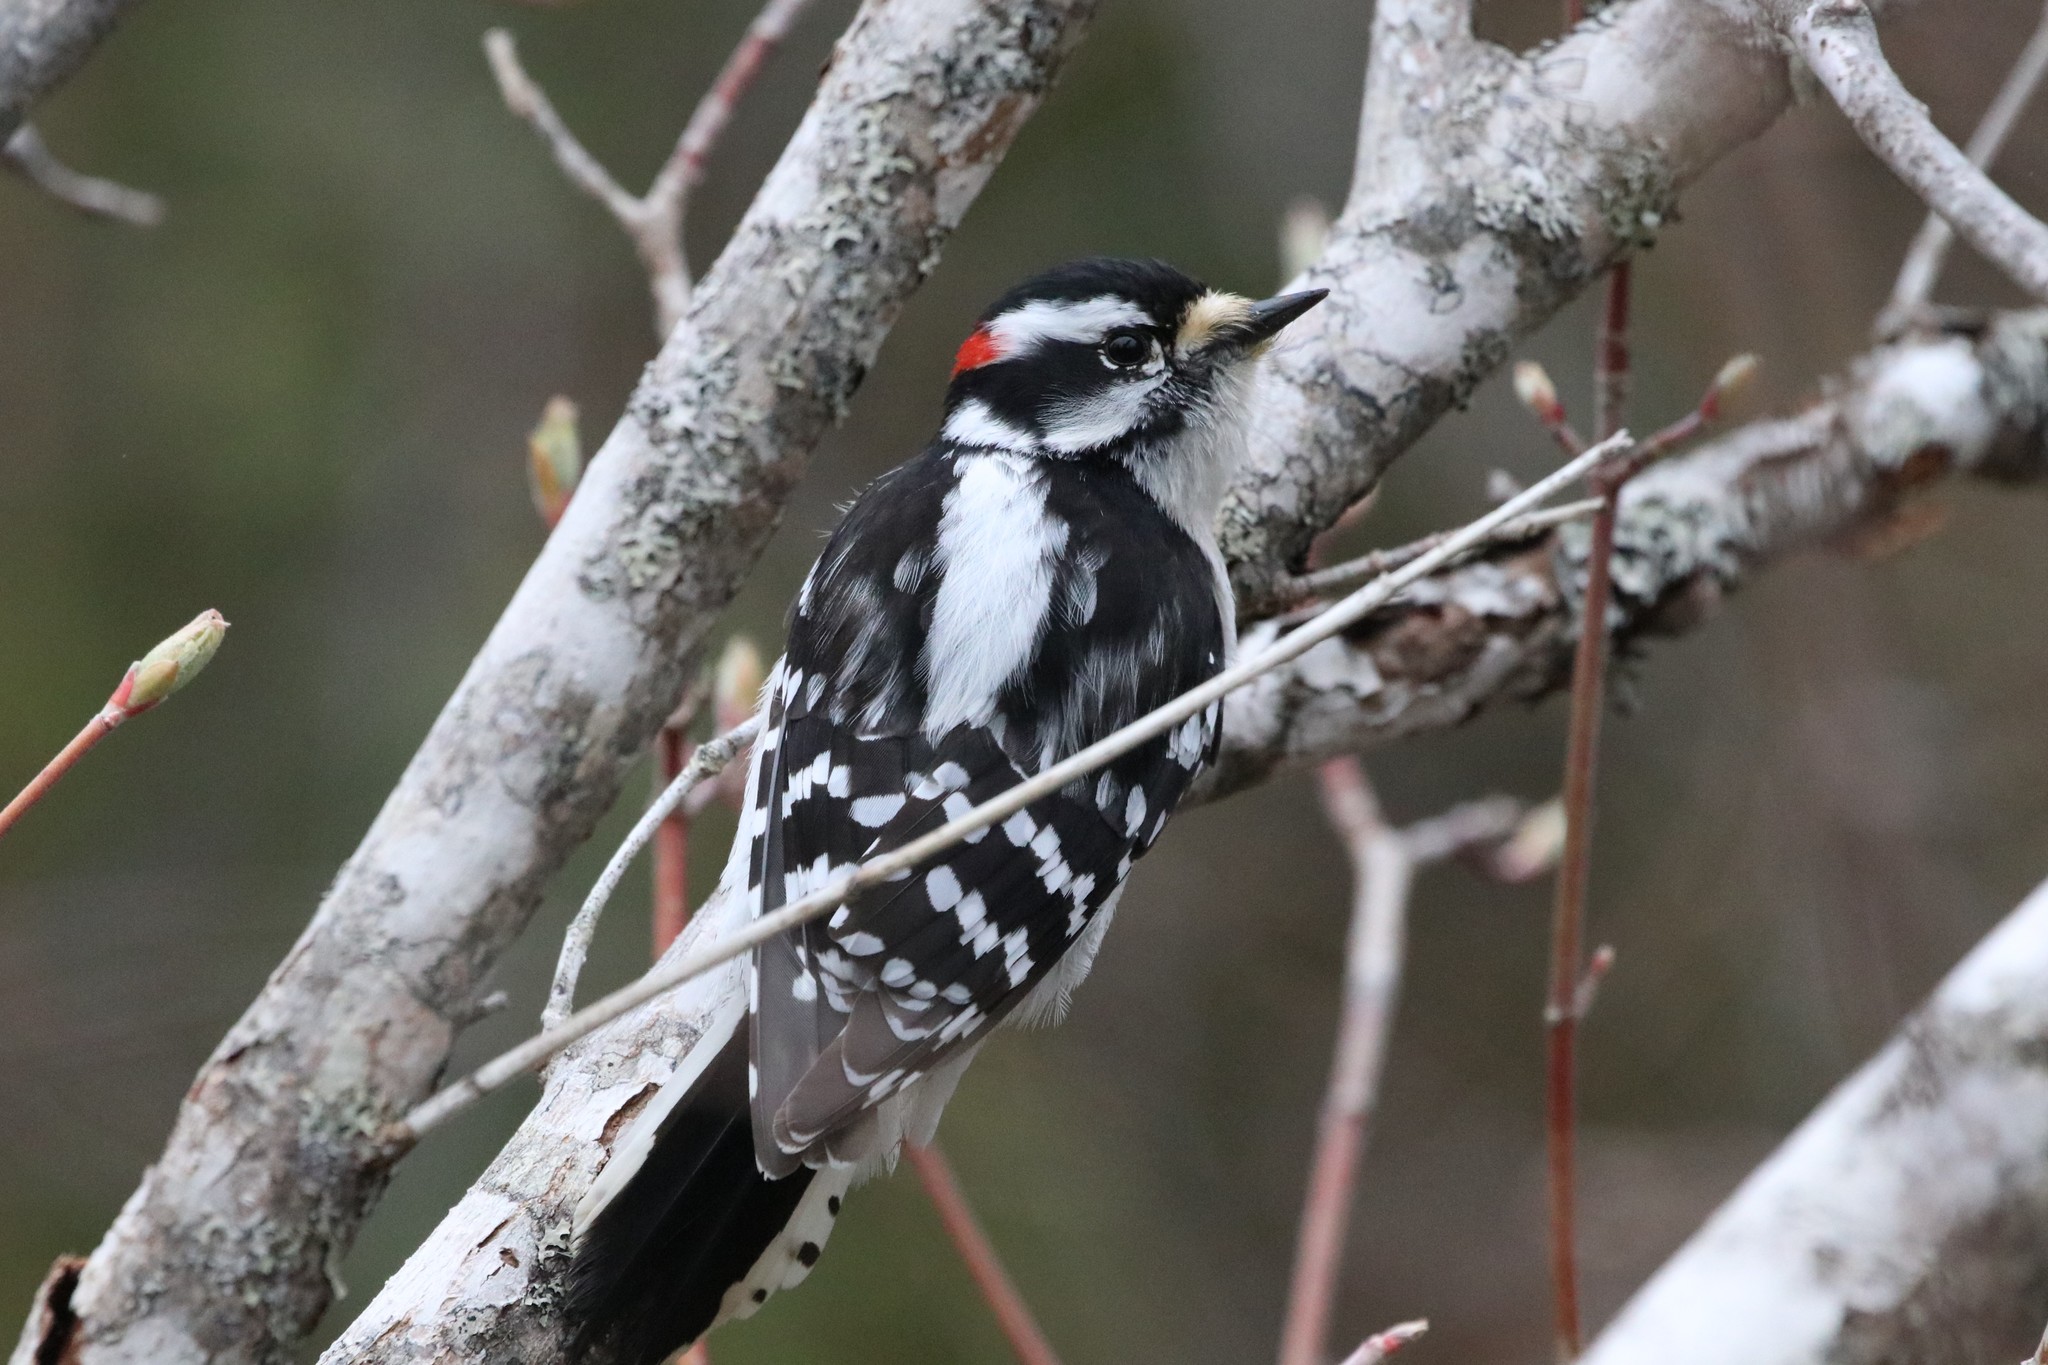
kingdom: Animalia
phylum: Chordata
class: Aves
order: Piciformes
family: Picidae
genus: Dryobates
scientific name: Dryobates pubescens
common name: Downy woodpecker
